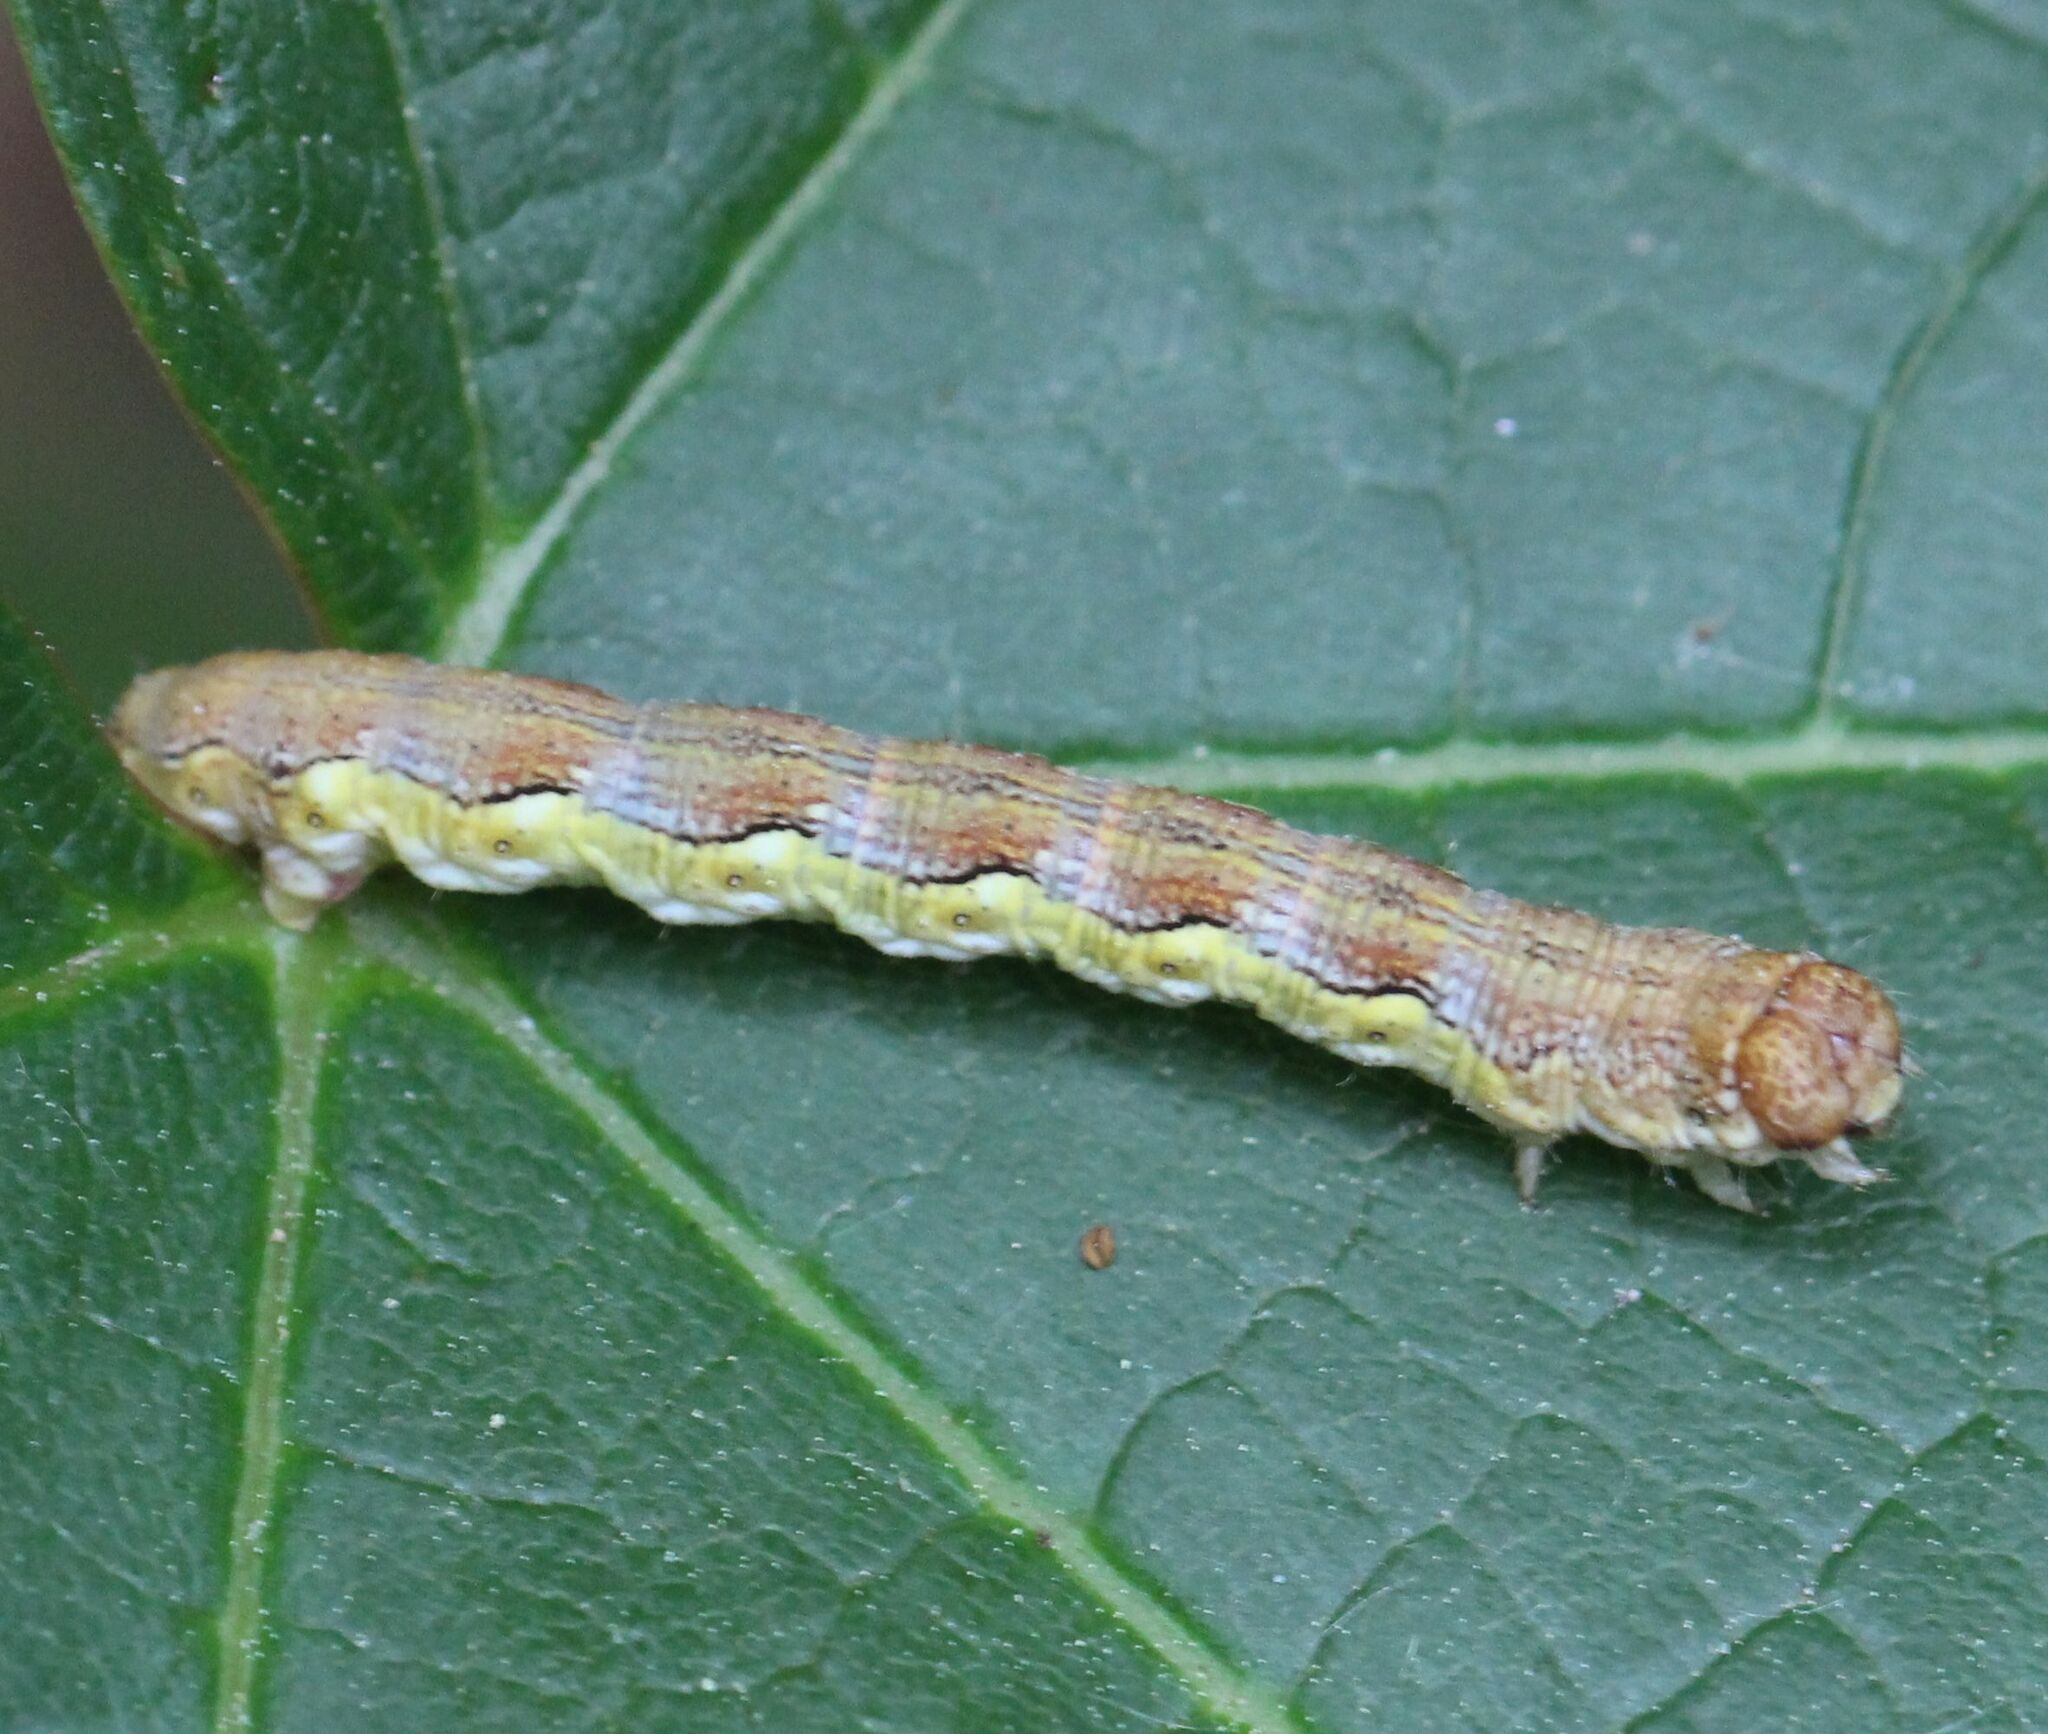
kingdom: Animalia
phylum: Arthropoda
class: Insecta
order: Lepidoptera
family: Geometridae
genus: Erannis
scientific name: Erannis defoliaria
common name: Mottled umber
